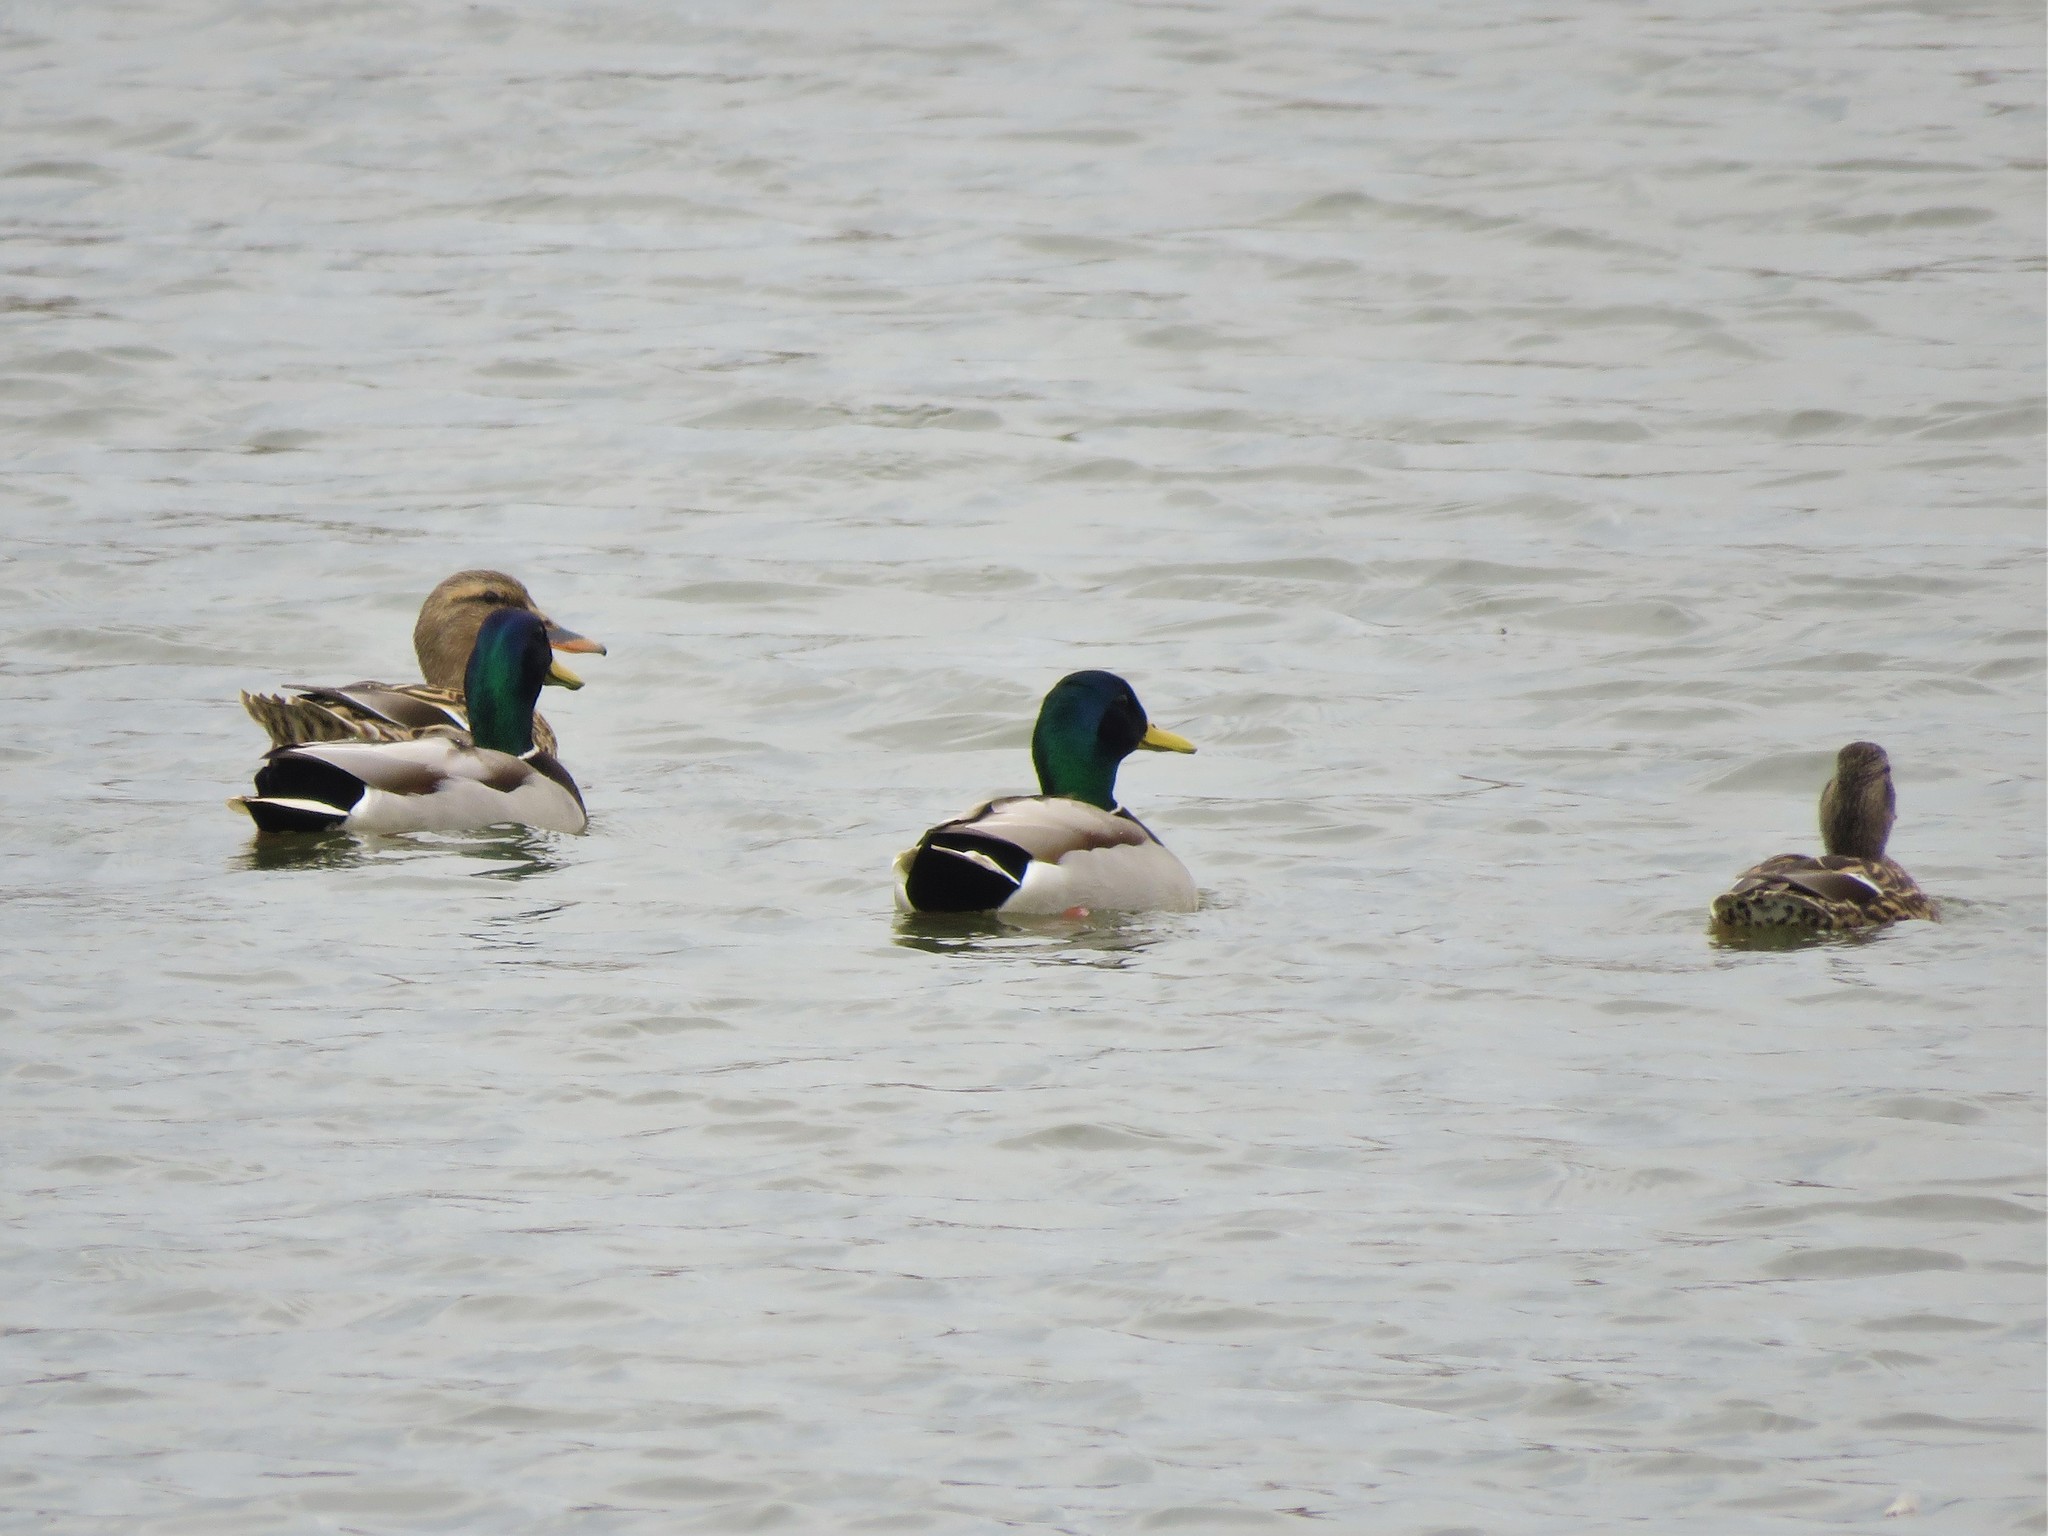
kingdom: Animalia
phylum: Chordata
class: Aves
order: Anseriformes
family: Anatidae
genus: Anas
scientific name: Anas platyrhynchos
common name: Mallard
